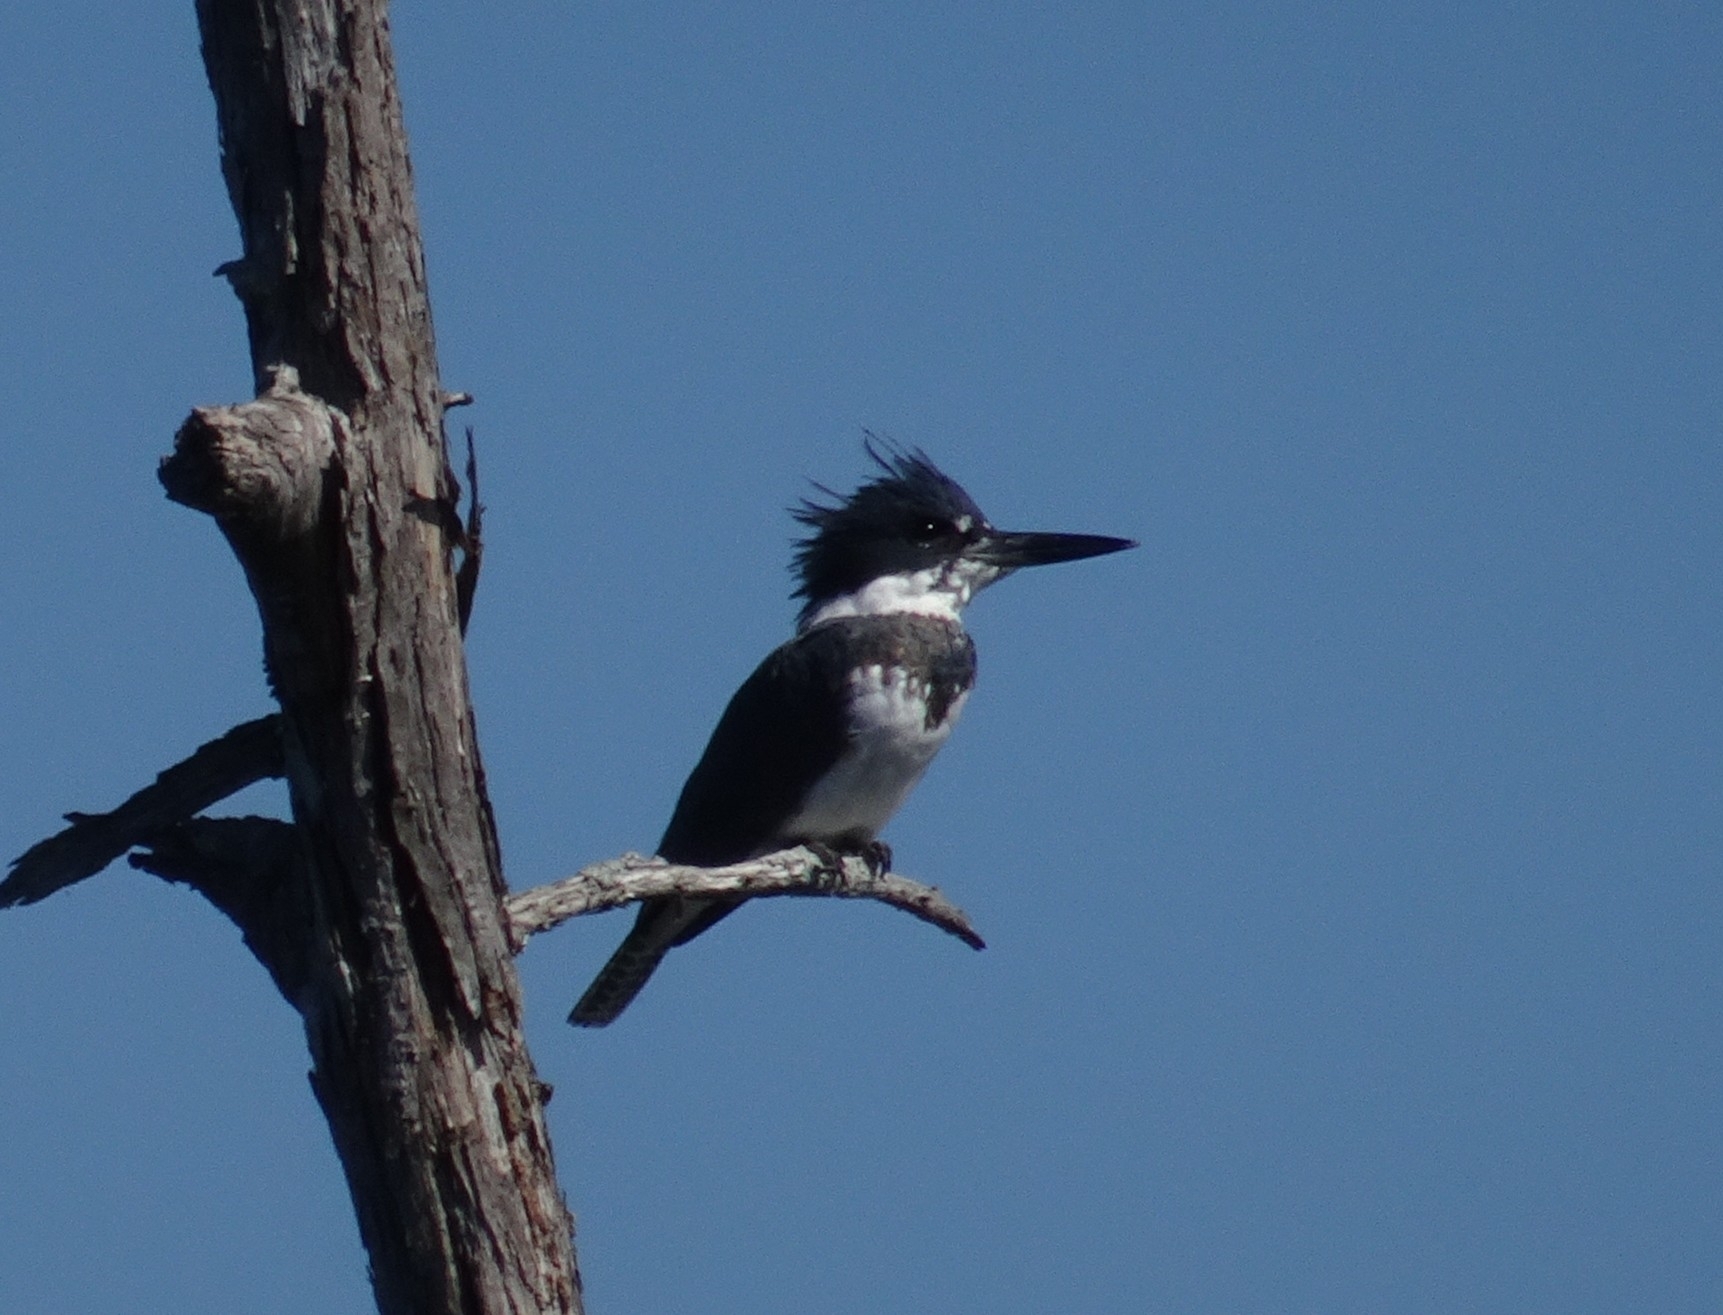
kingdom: Animalia
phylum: Chordata
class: Aves
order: Coraciiformes
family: Alcedinidae
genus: Megaceryle
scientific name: Megaceryle alcyon
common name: Belted kingfisher
